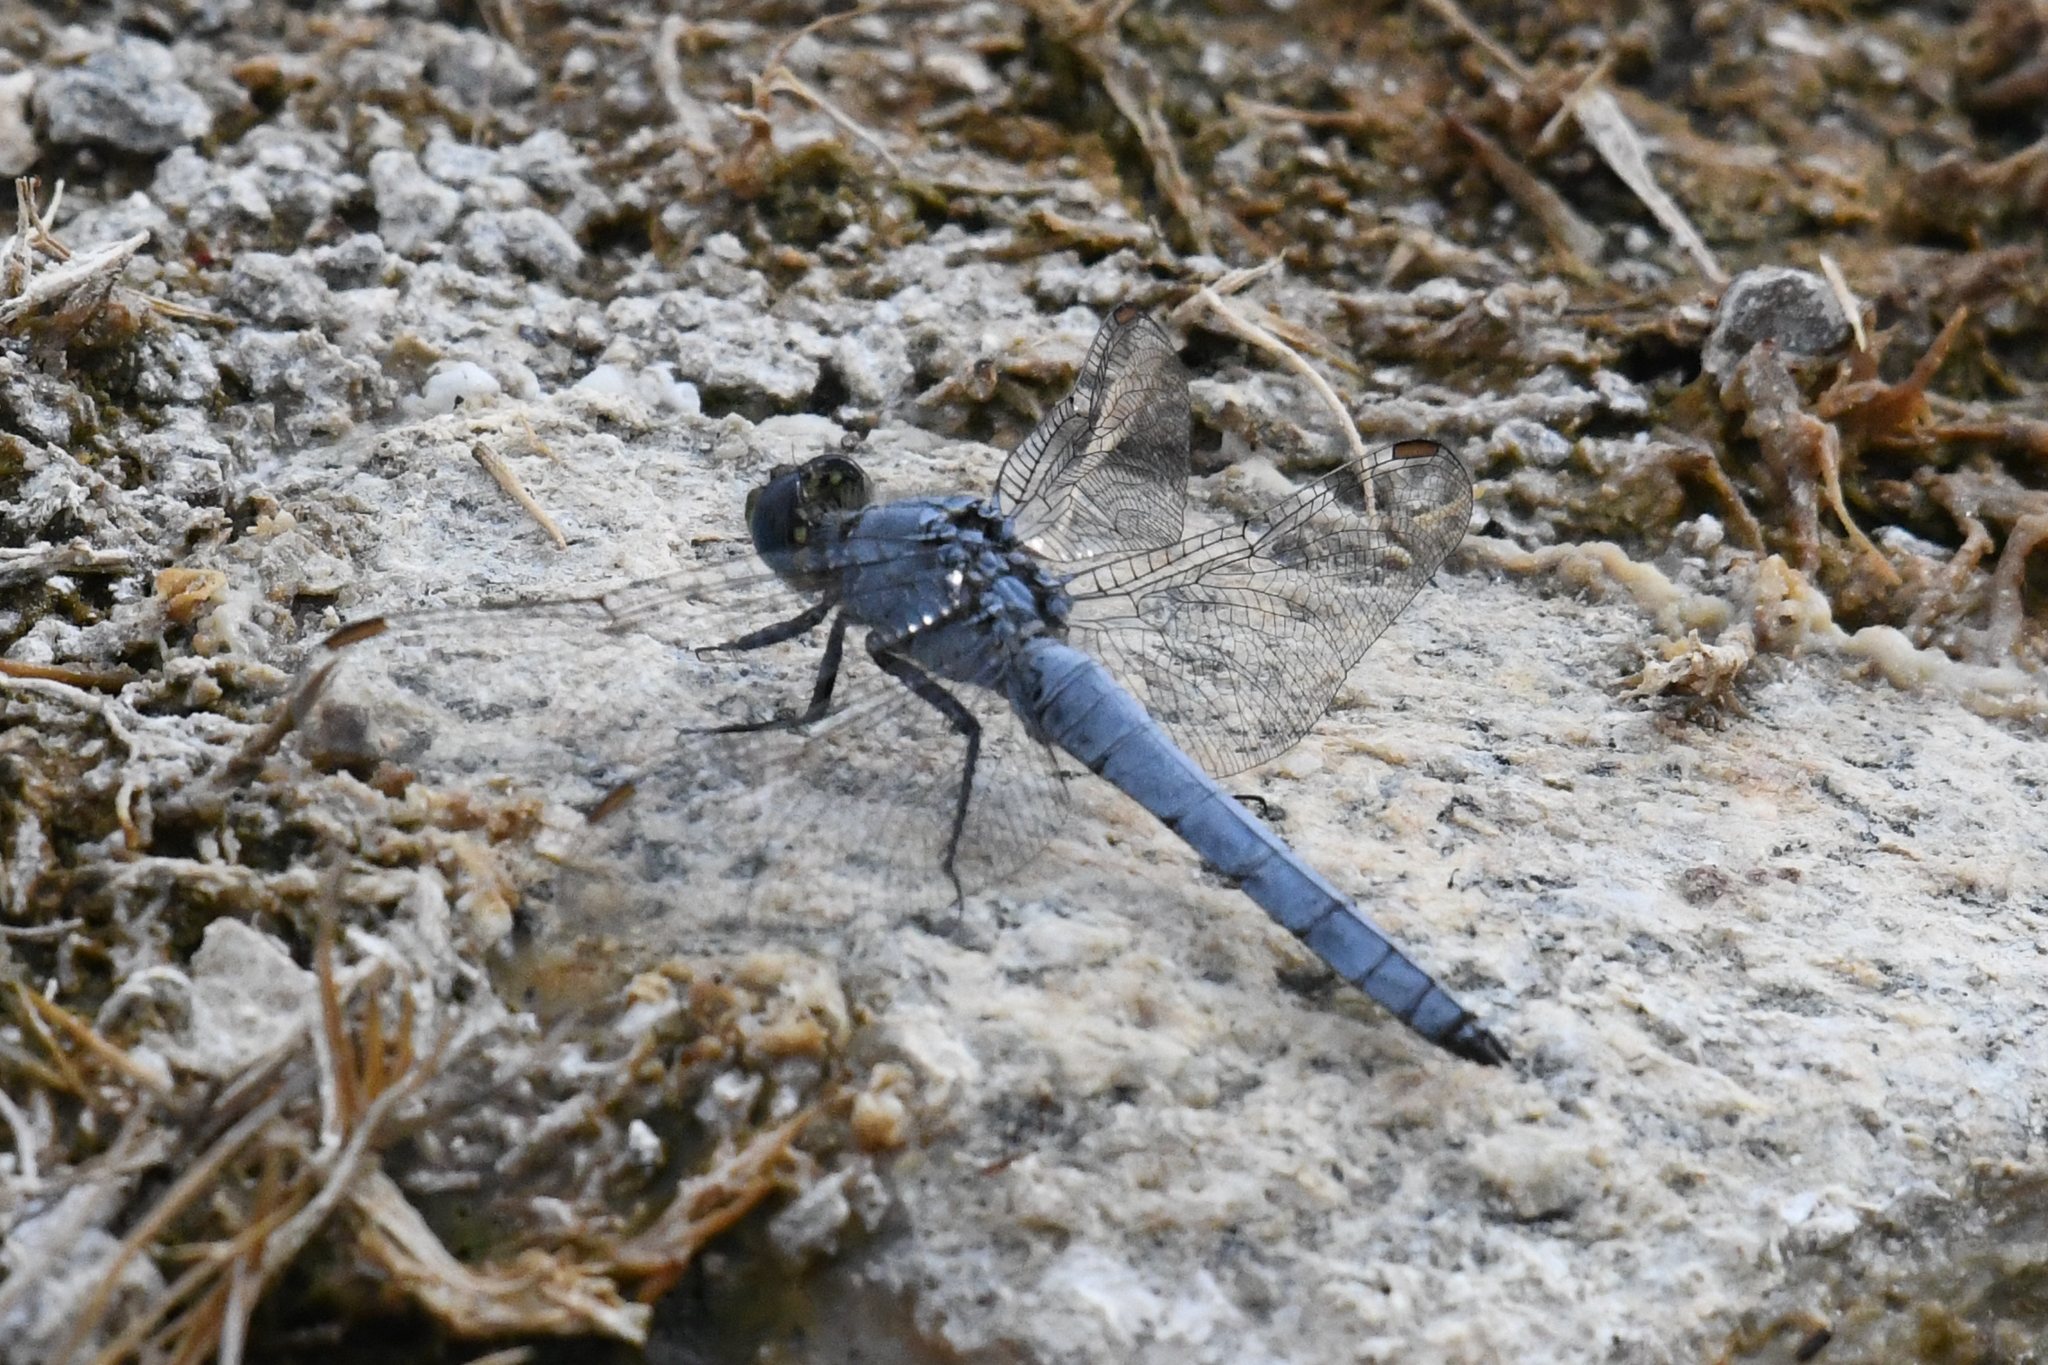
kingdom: Animalia
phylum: Arthropoda
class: Insecta
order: Odonata
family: Libellulidae
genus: Erythemis
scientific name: Erythemis collocata
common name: Western pondhawk
